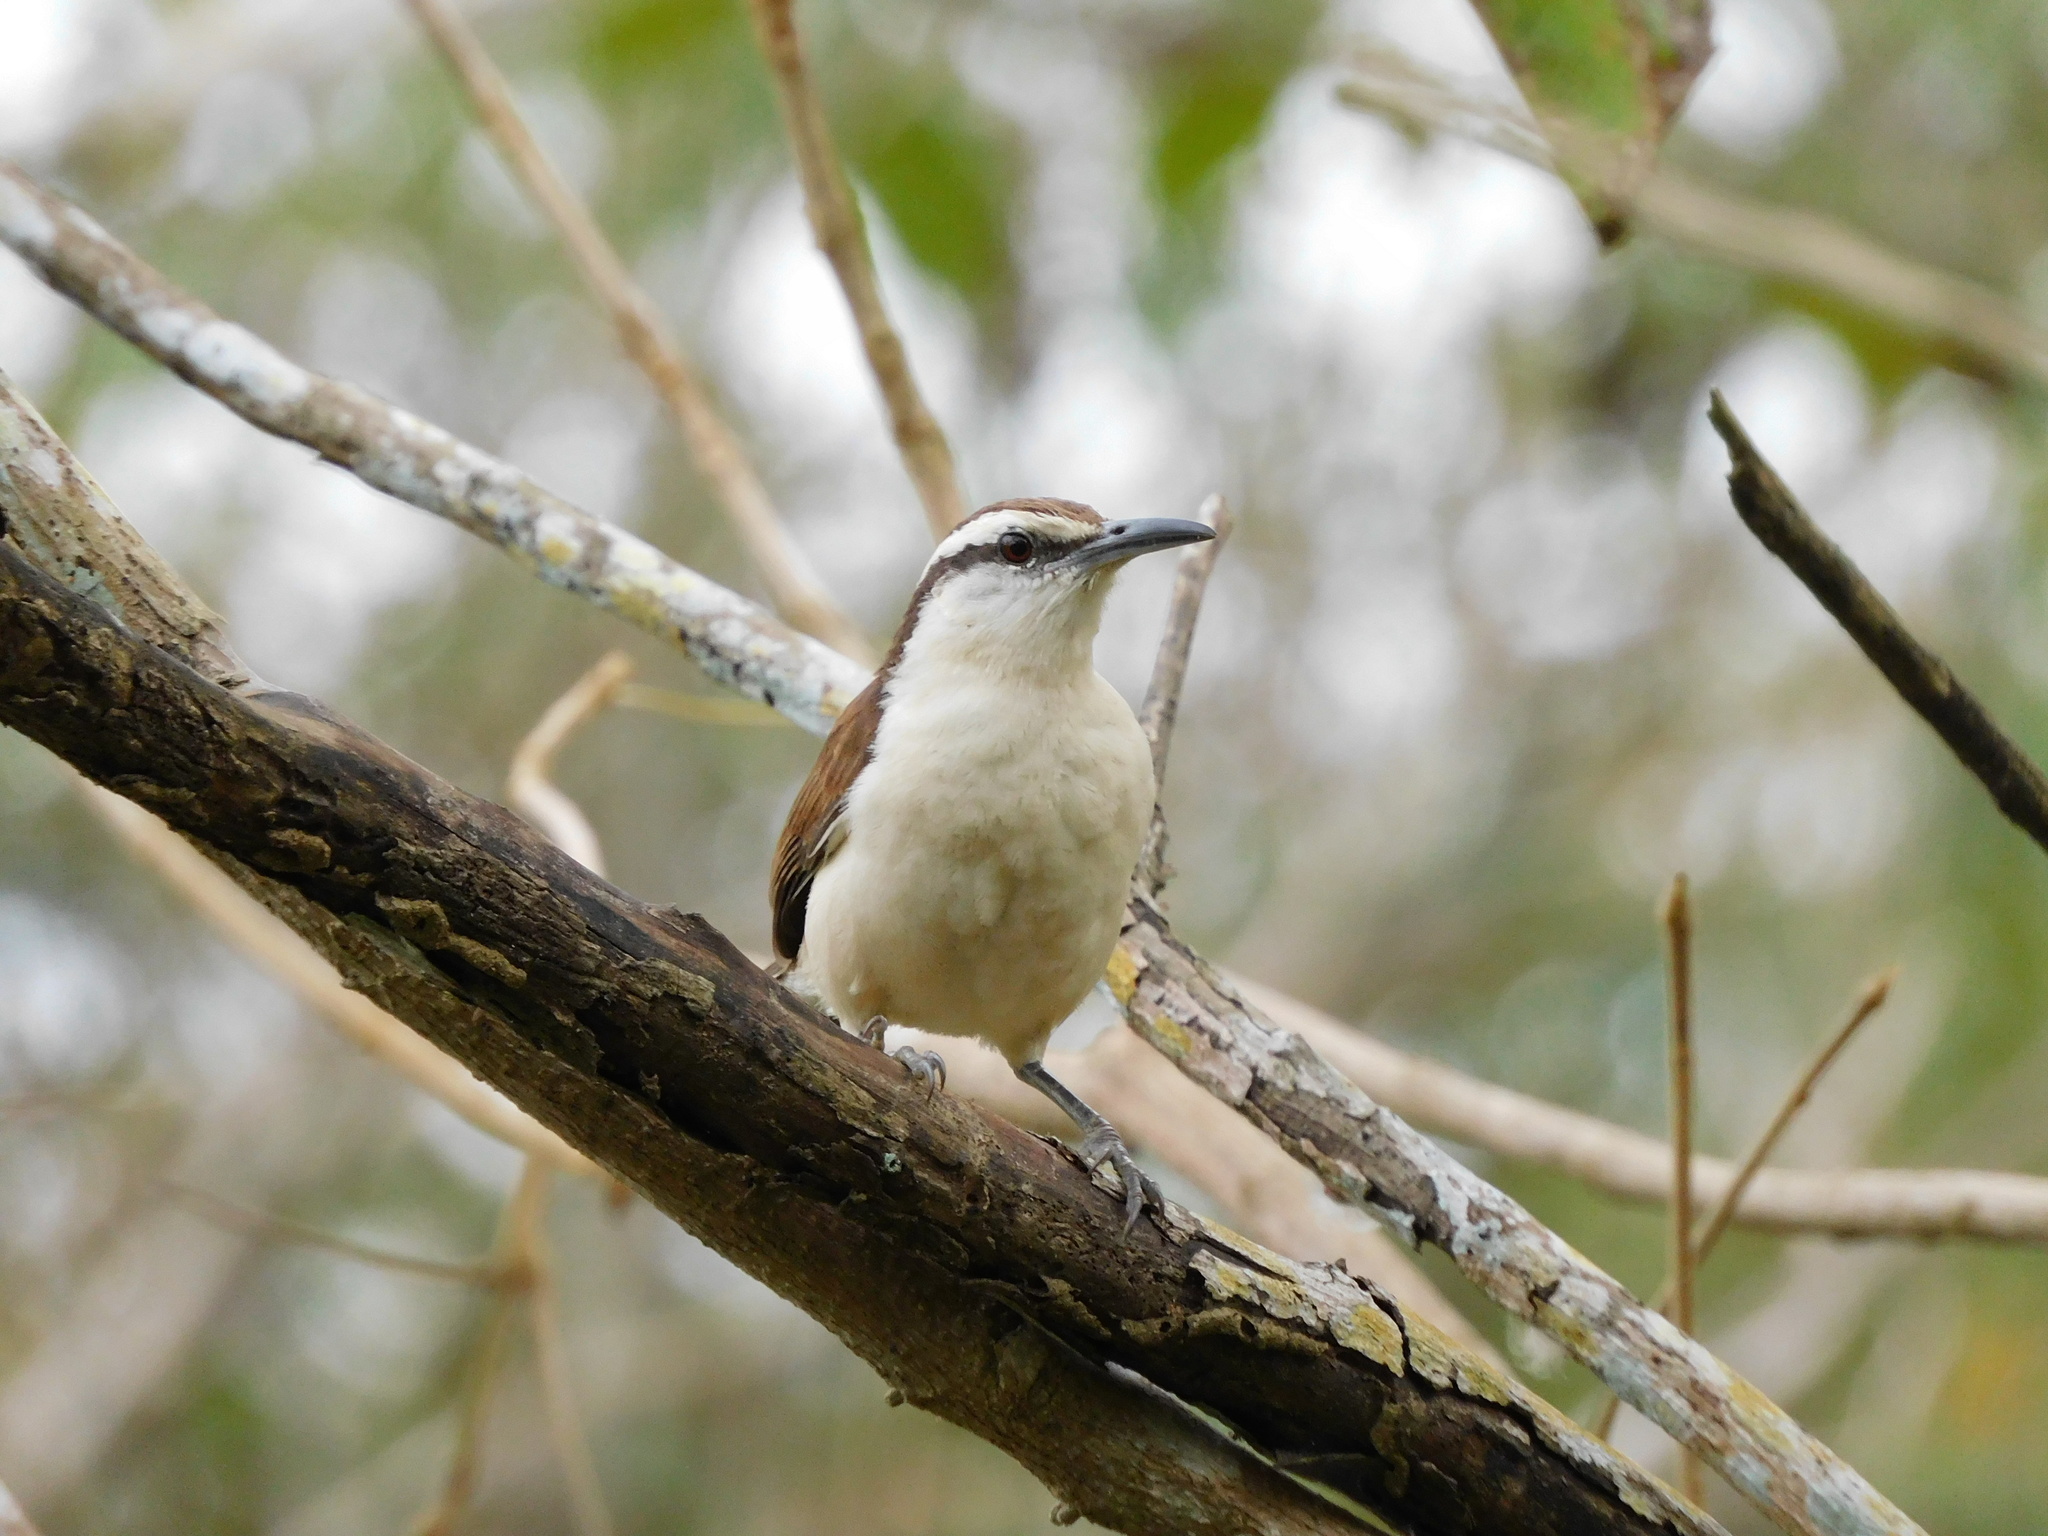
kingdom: Animalia
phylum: Chordata
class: Aves
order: Passeriformes
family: Troglodytidae
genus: Campylorhynchus
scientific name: Campylorhynchus griseus
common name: Bicolored wren
